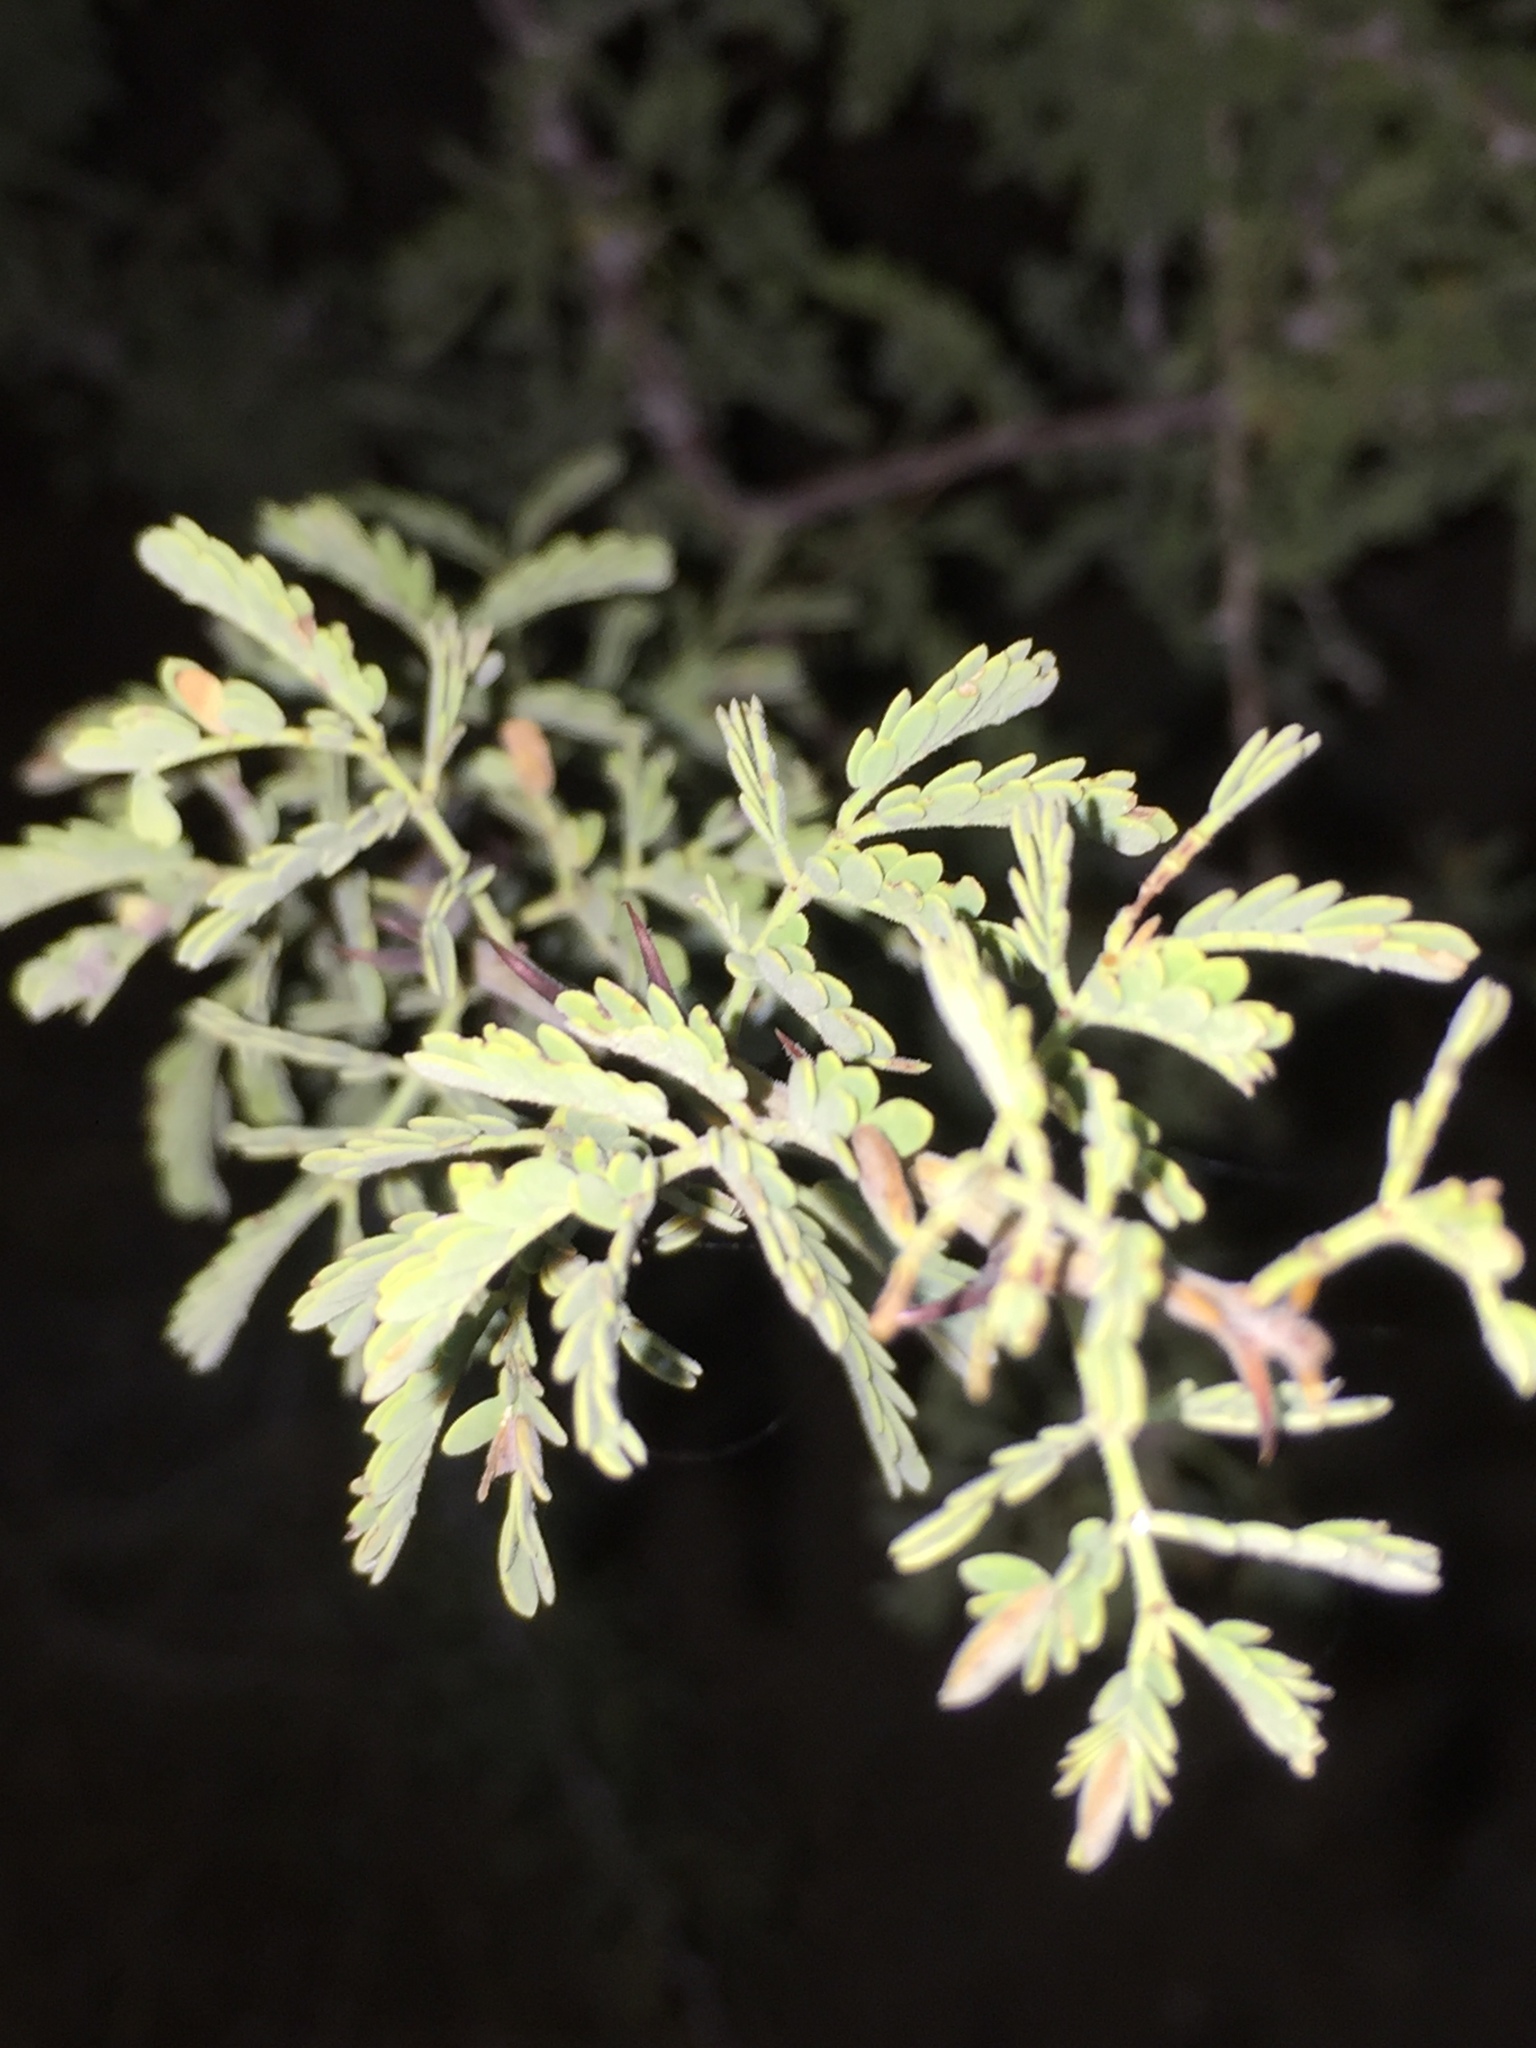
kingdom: Plantae
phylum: Tracheophyta
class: Magnoliopsida
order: Fabales
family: Fabaceae
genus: Senegalia
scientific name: Senegalia greggii
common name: Texas-mimosa
